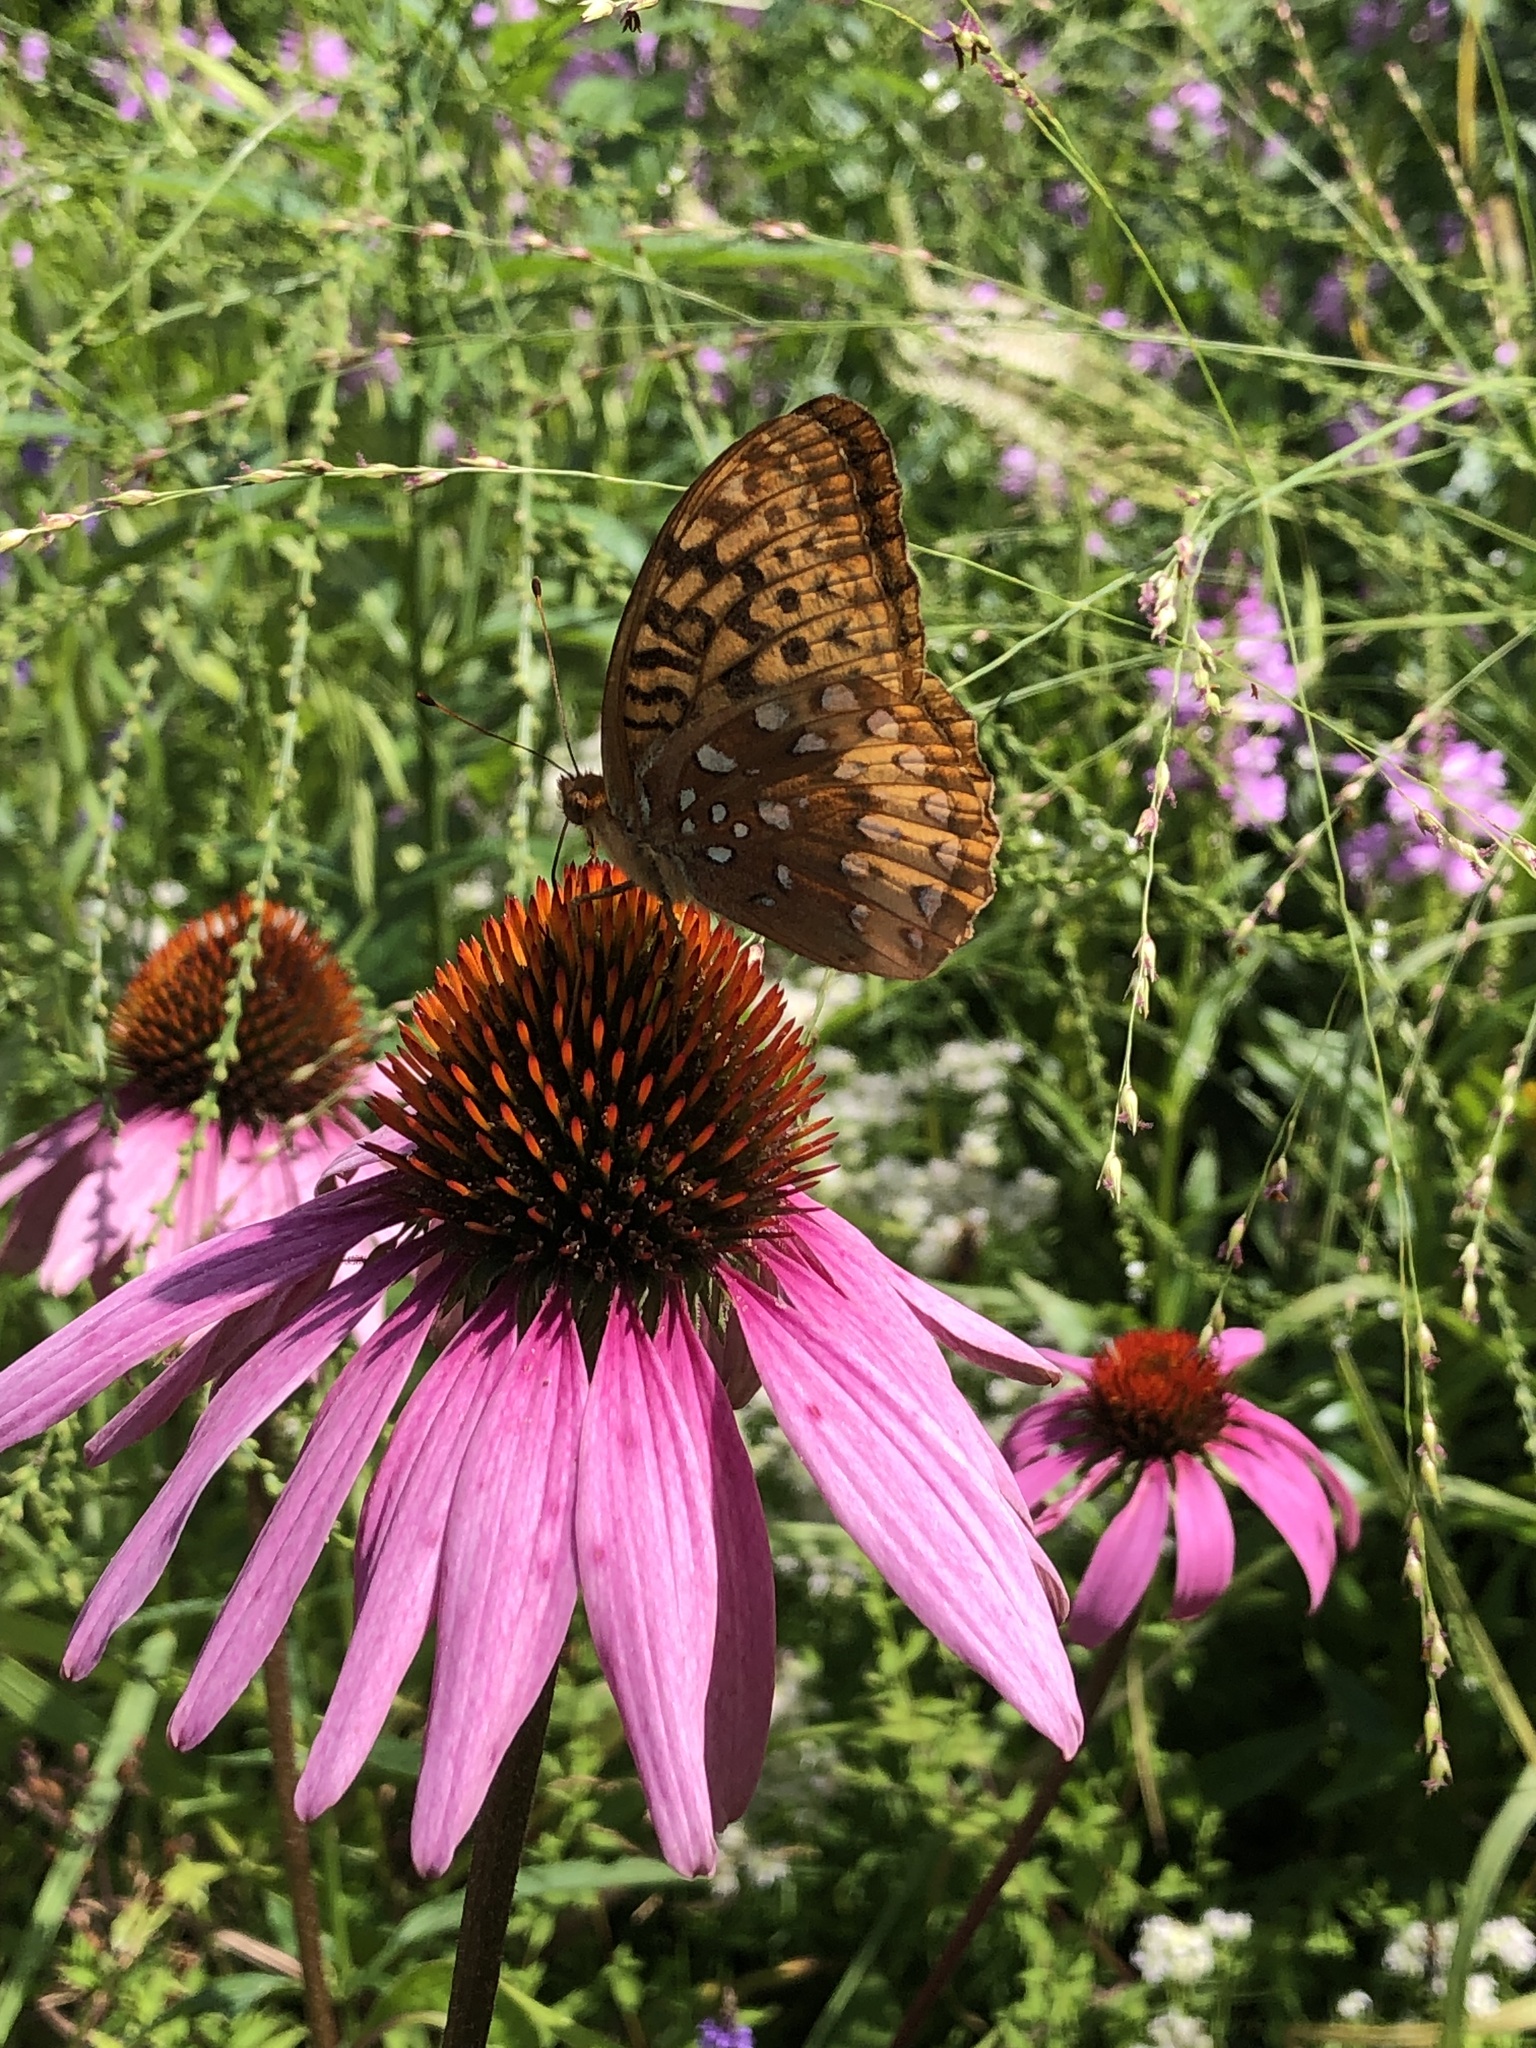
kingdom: Animalia
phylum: Arthropoda
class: Insecta
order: Lepidoptera
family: Nymphalidae
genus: Speyeria
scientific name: Speyeria cybele
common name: Great spangled fritillary
